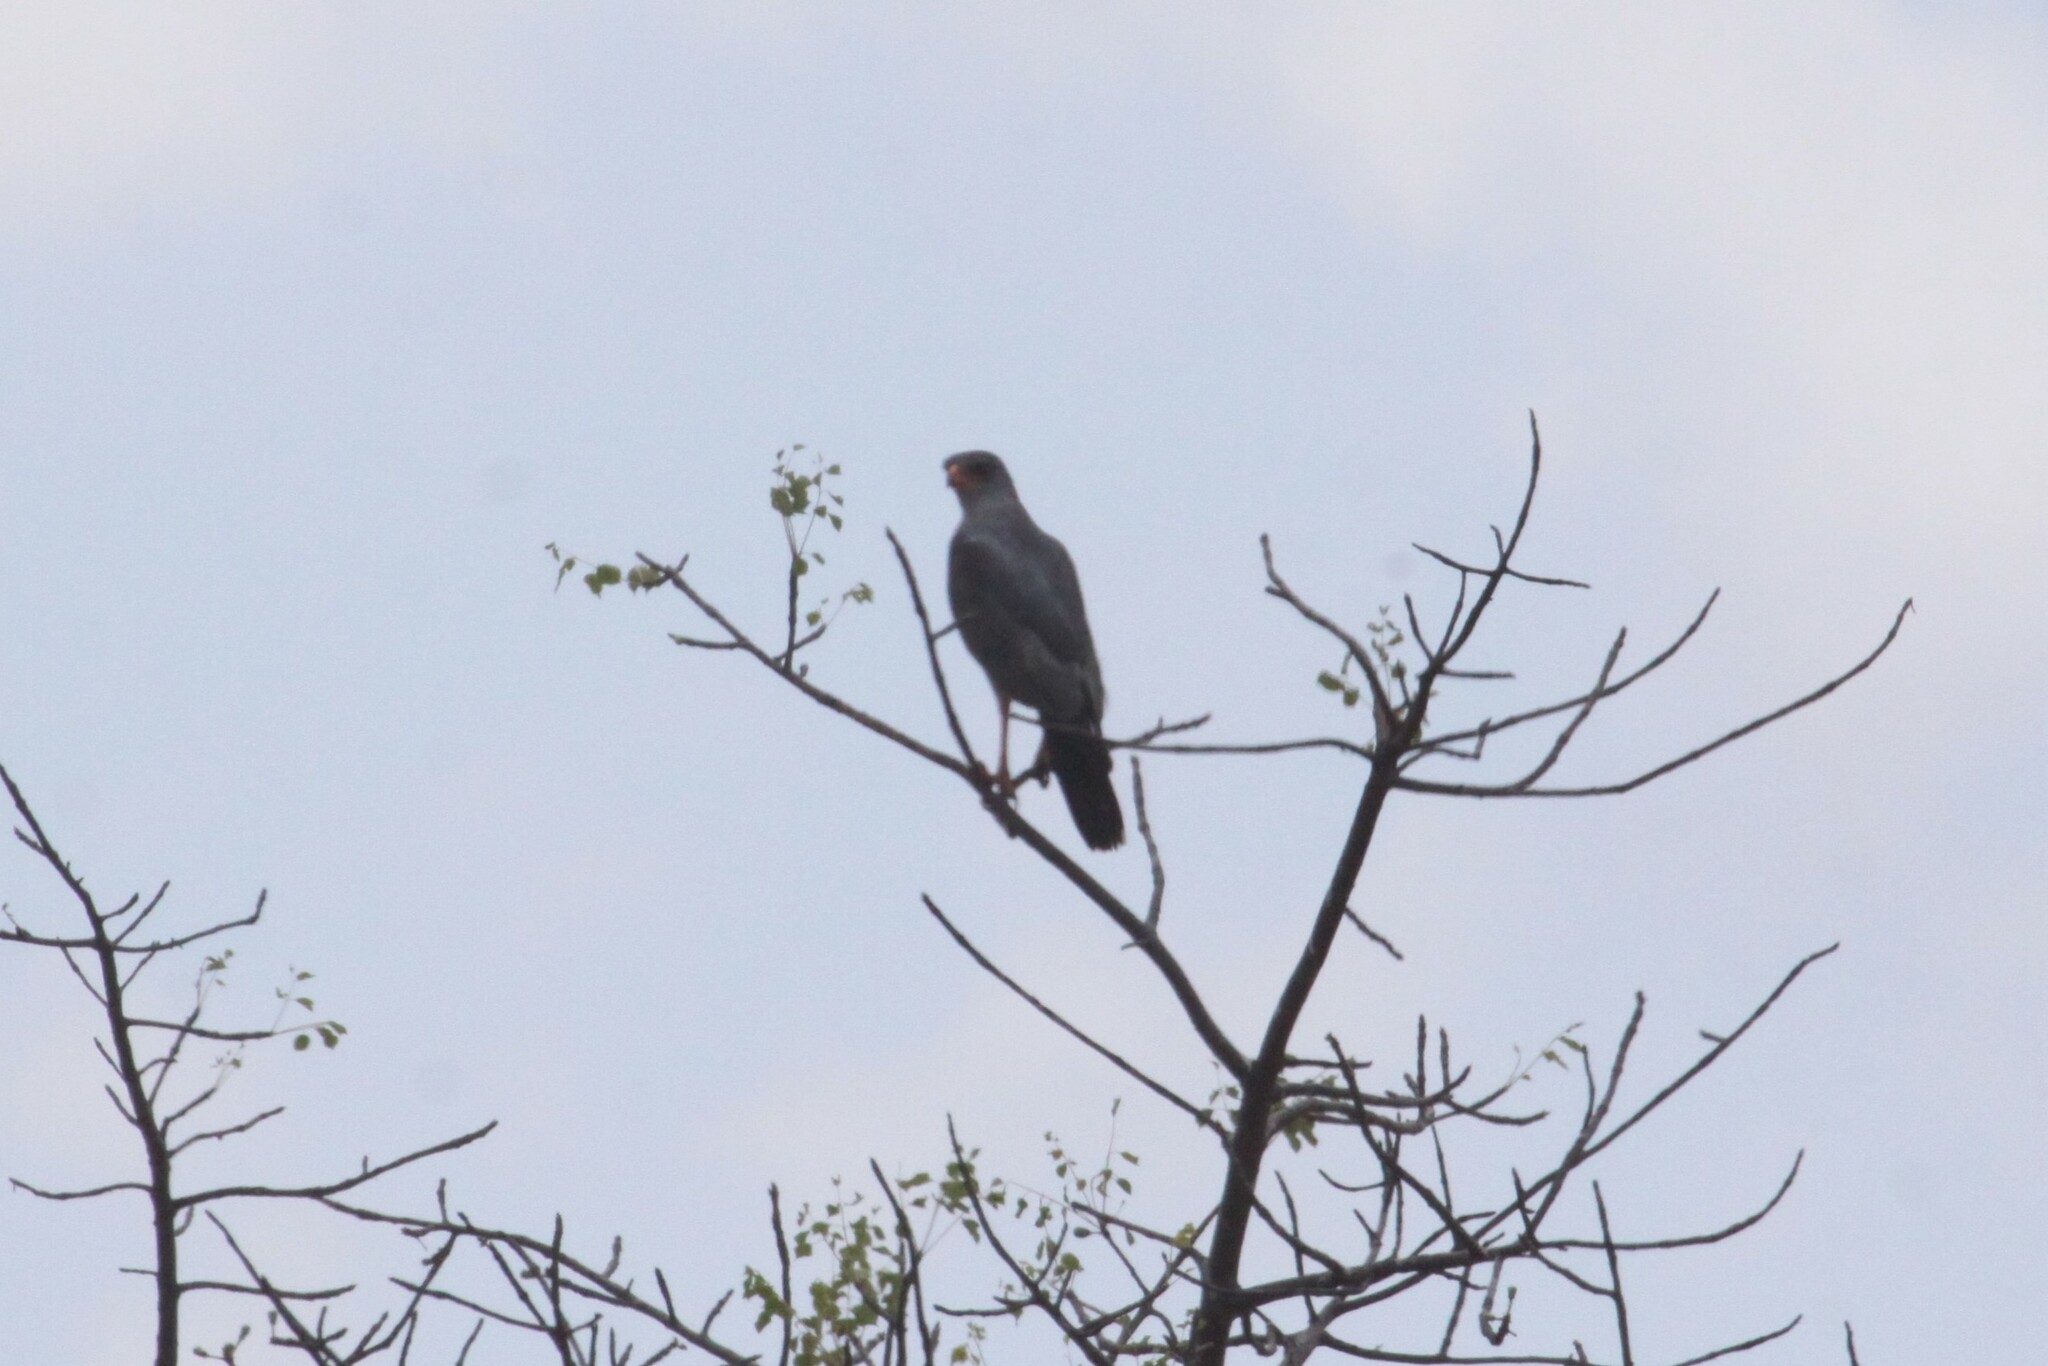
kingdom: Animalia
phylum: Chordata
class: Aves
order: Accipitriformes
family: Accipitridae
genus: Melierax
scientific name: Melierax metabates
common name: Dark chanting-goshawk
